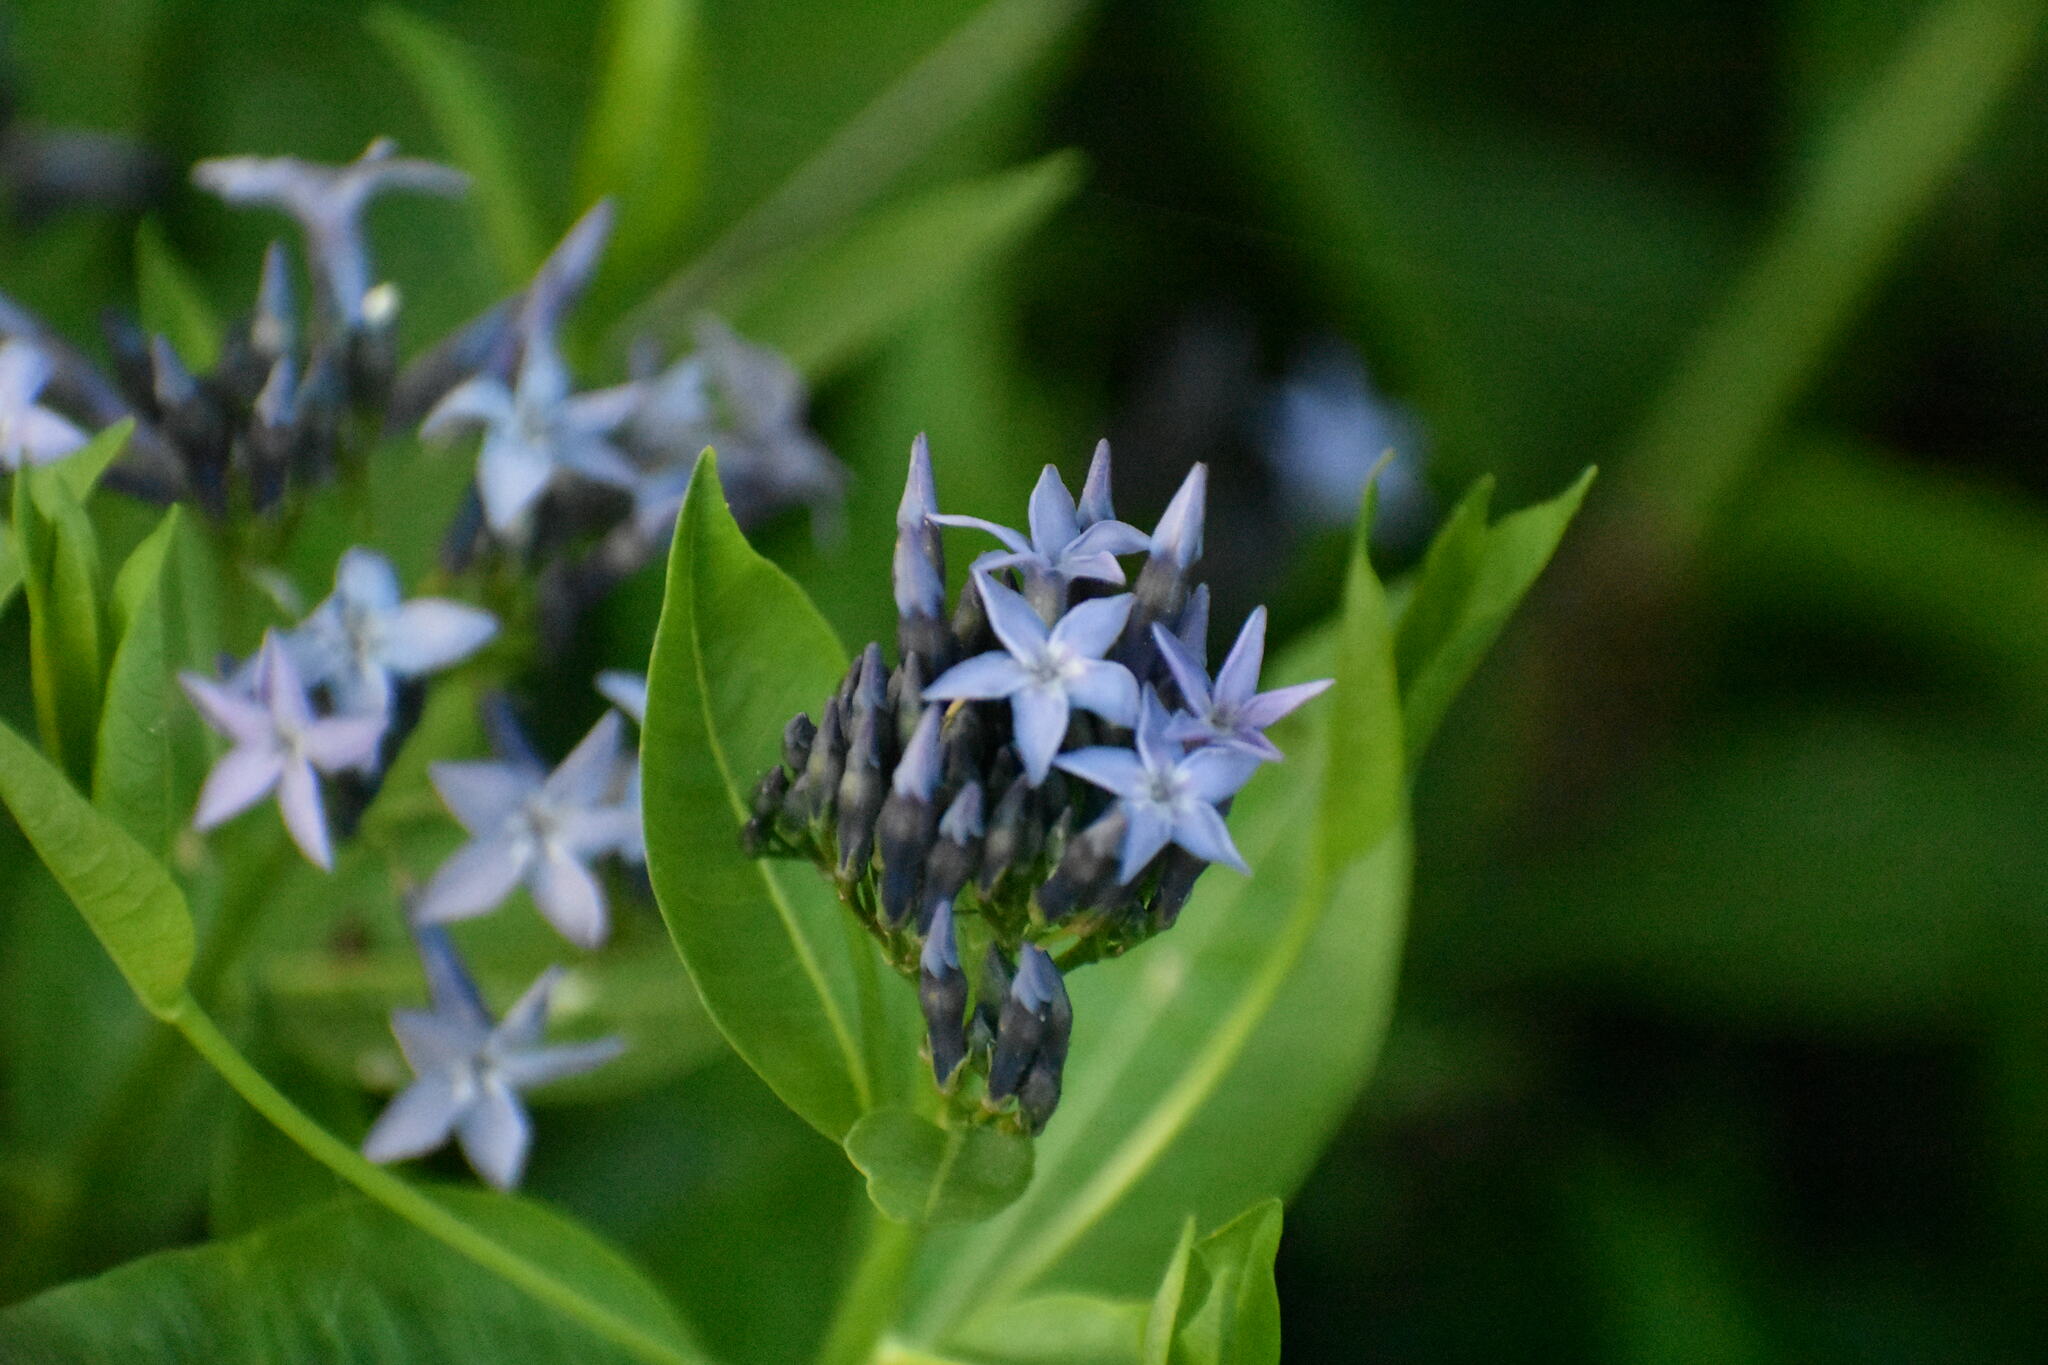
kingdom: Plantae
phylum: Tracheophyta
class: Magnoliopsida
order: Gentianales
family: Apocynaceae
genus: Amsonia
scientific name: Amsonia tabernaemontana
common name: Texas-star
